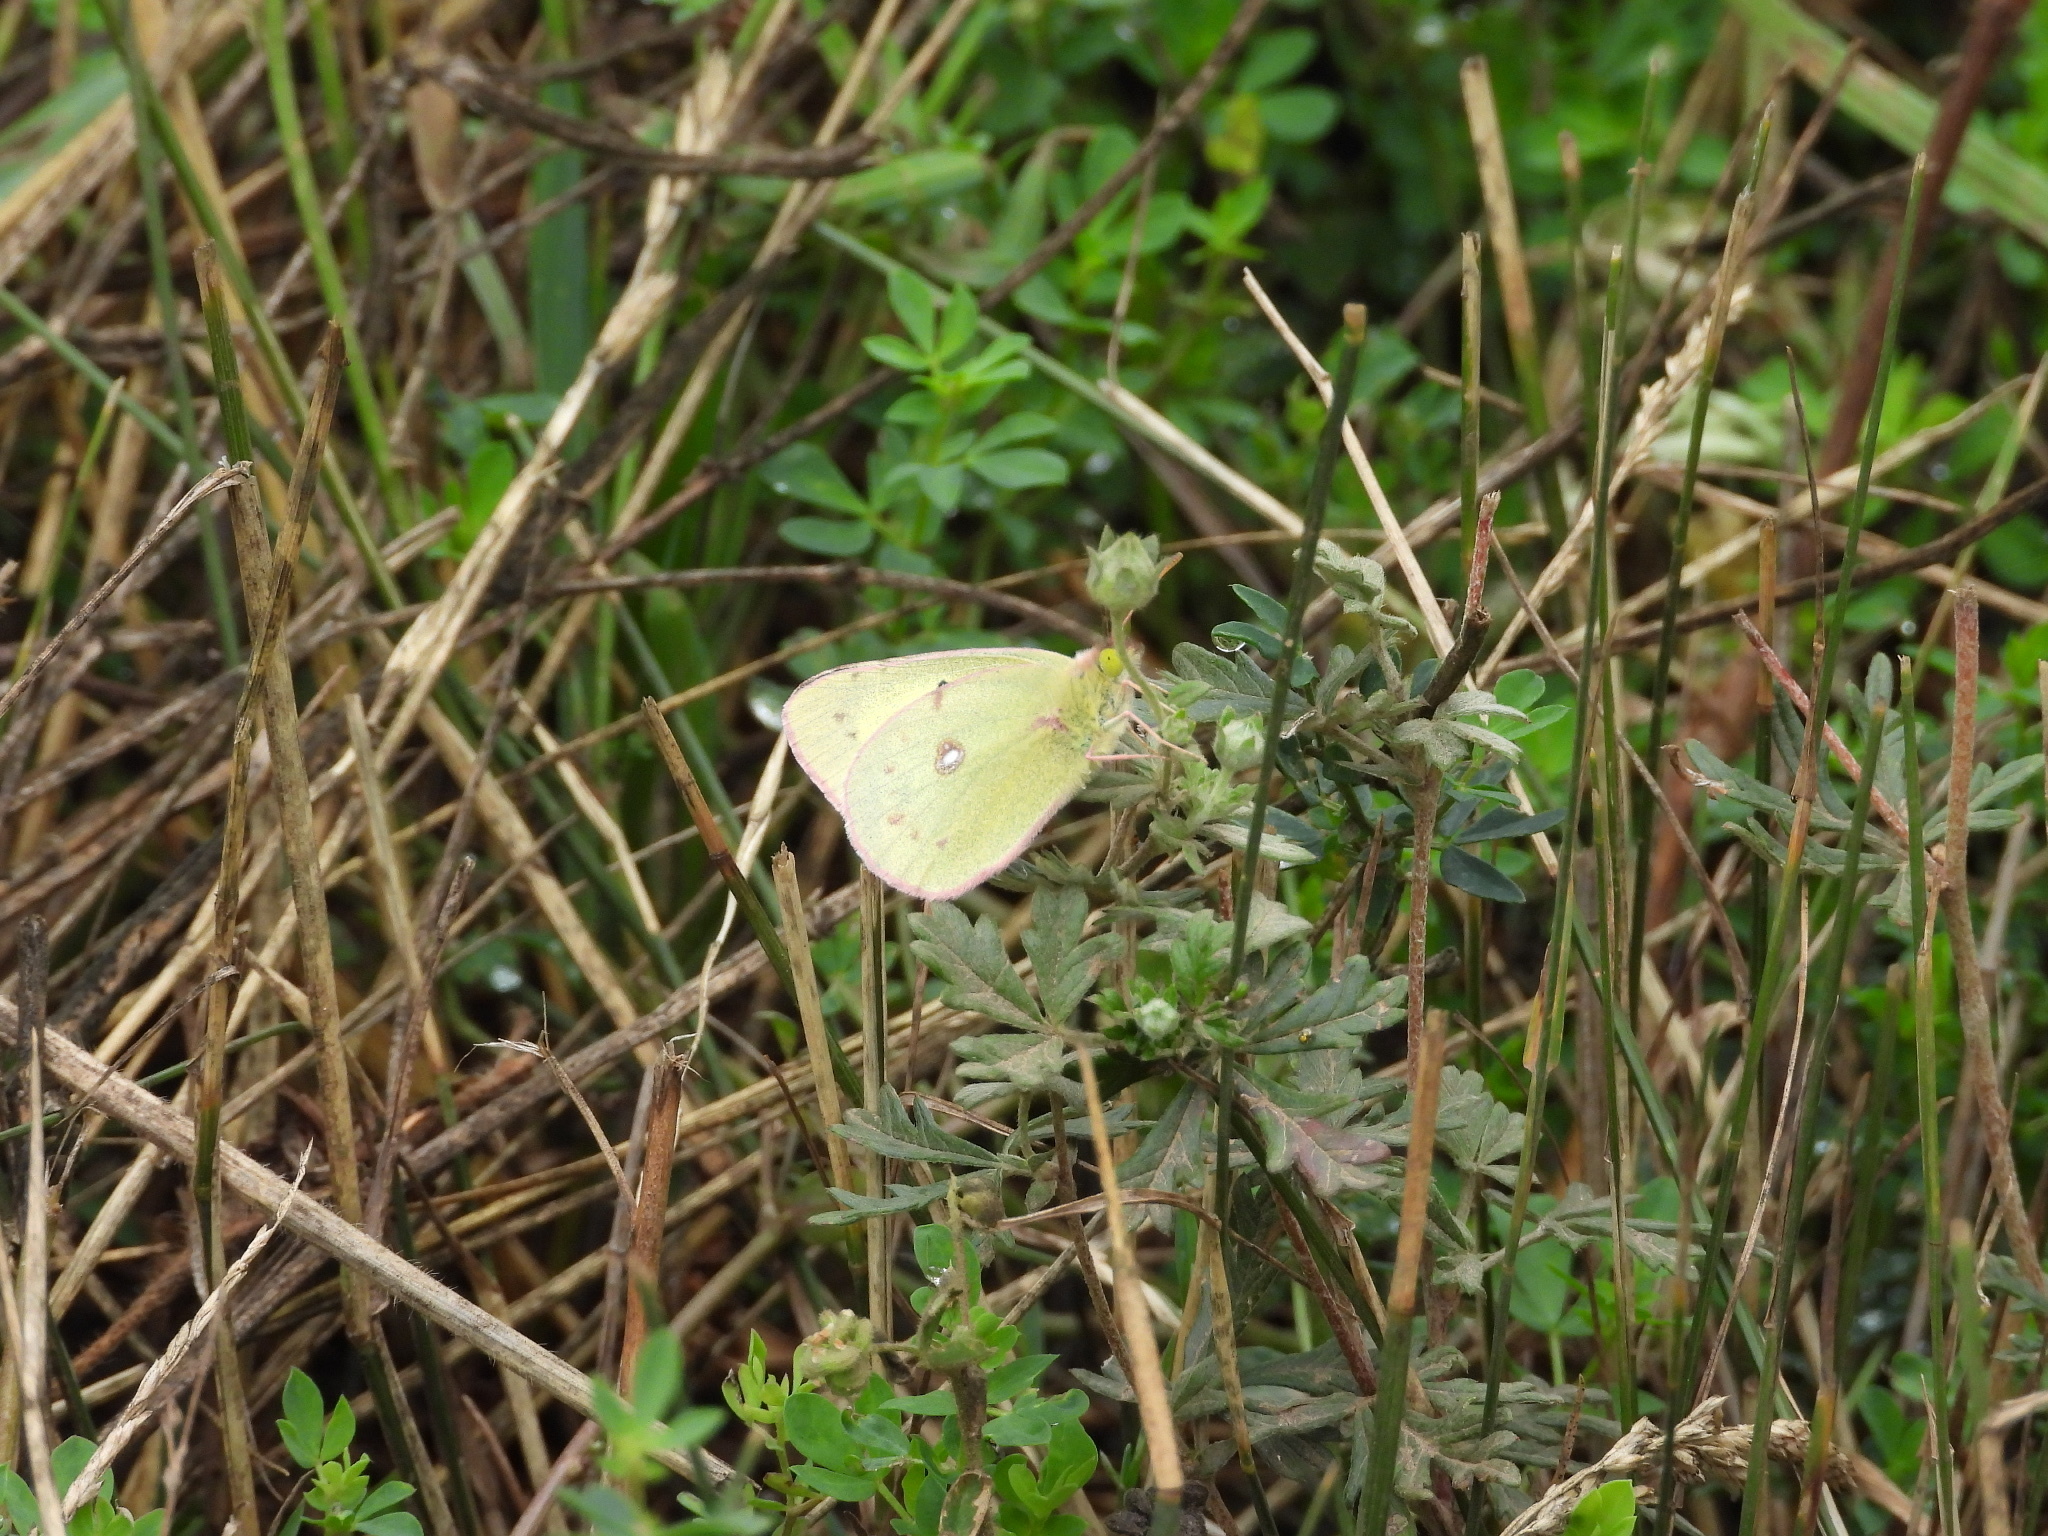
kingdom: Animalia
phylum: Arthropoda
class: Insecta
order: Lepidoptera
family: Pieridae
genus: Colias
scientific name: Colias philodice
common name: Clouded sulphur
